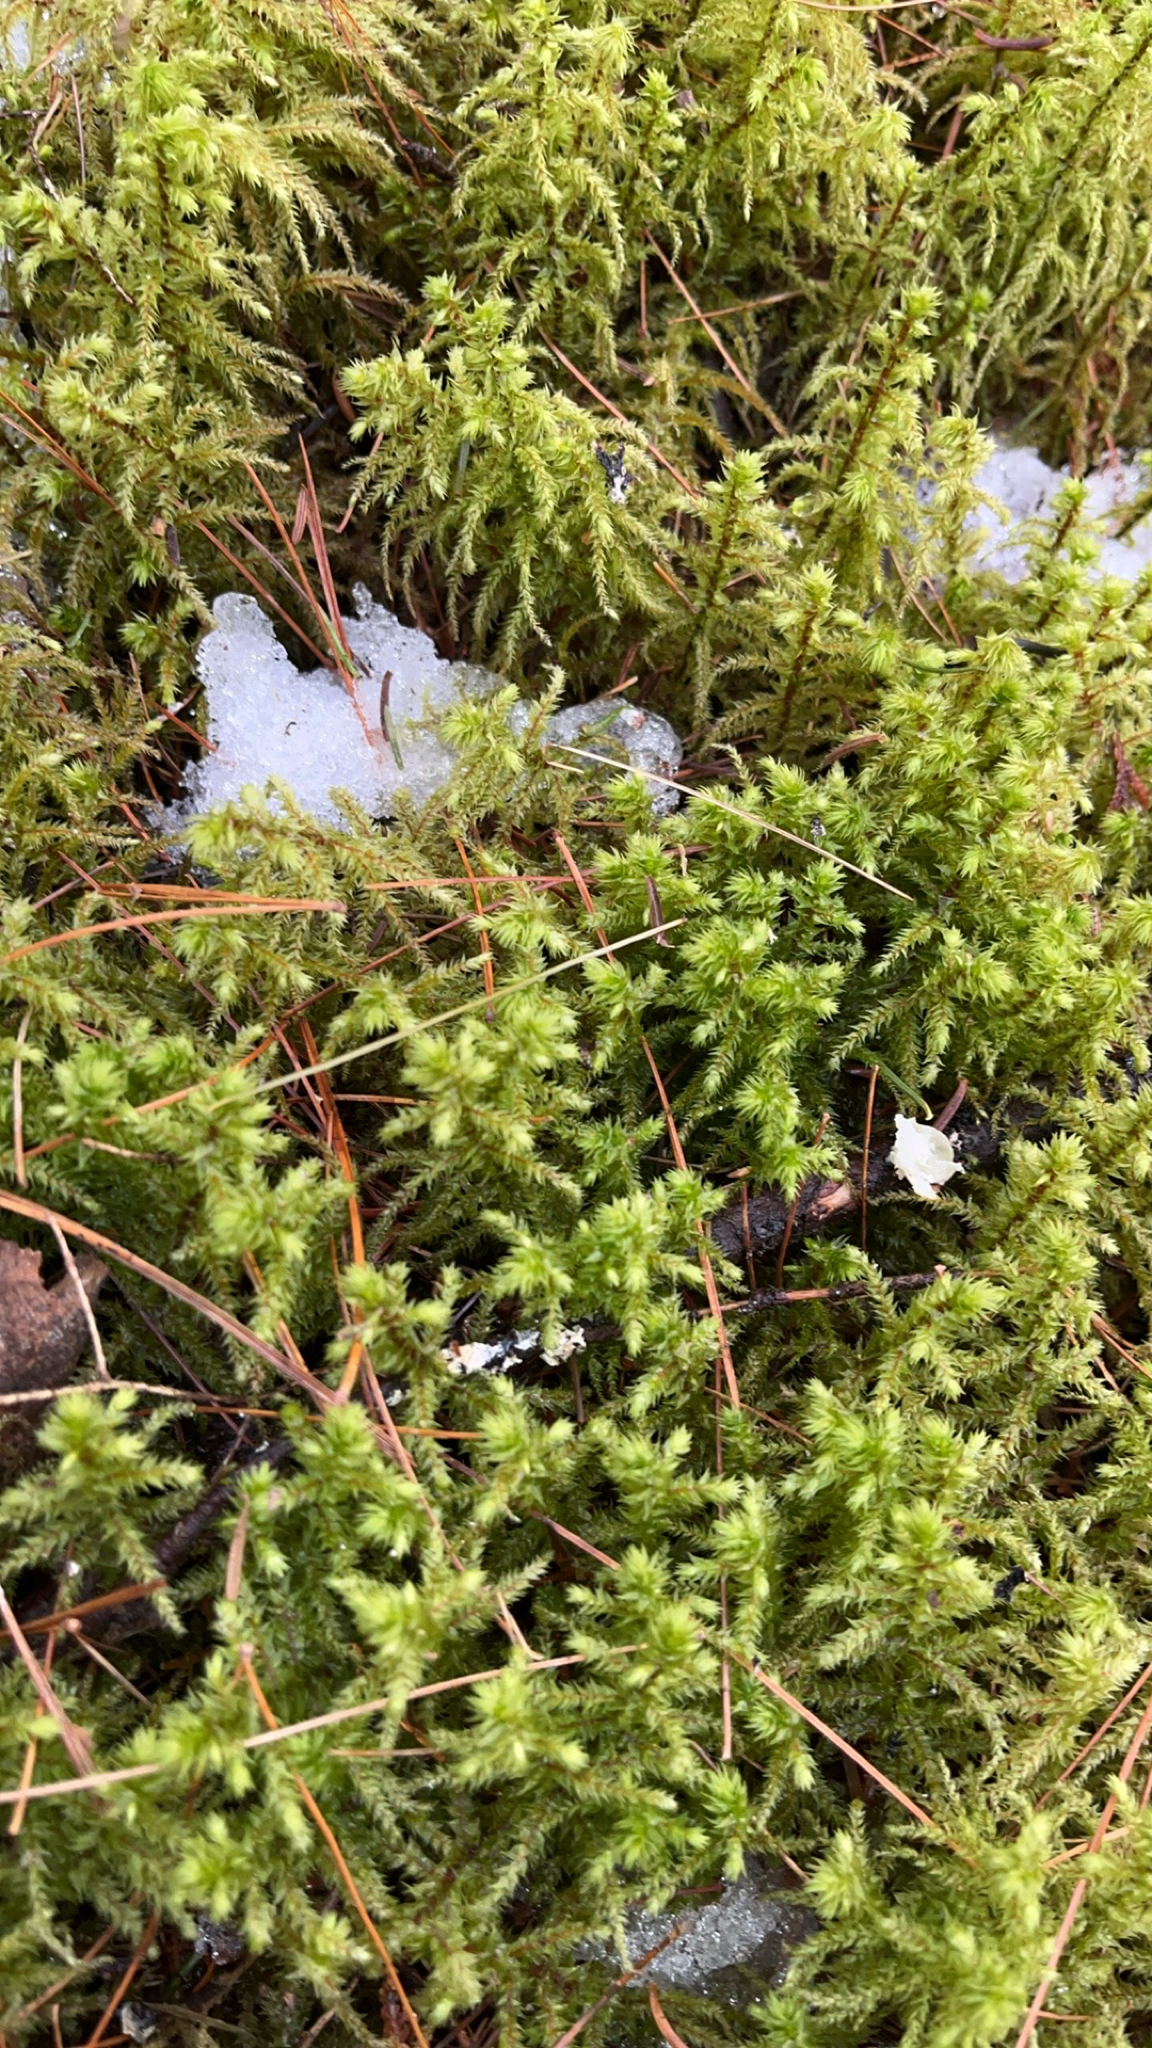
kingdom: Plantae
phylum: Bryophyta
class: Bryopsida
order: Hypnales
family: Hylocomiaceae
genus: Hylocomiadelphus
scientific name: Hylocomiadelphus triquetrus
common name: Rough goose neck moss
